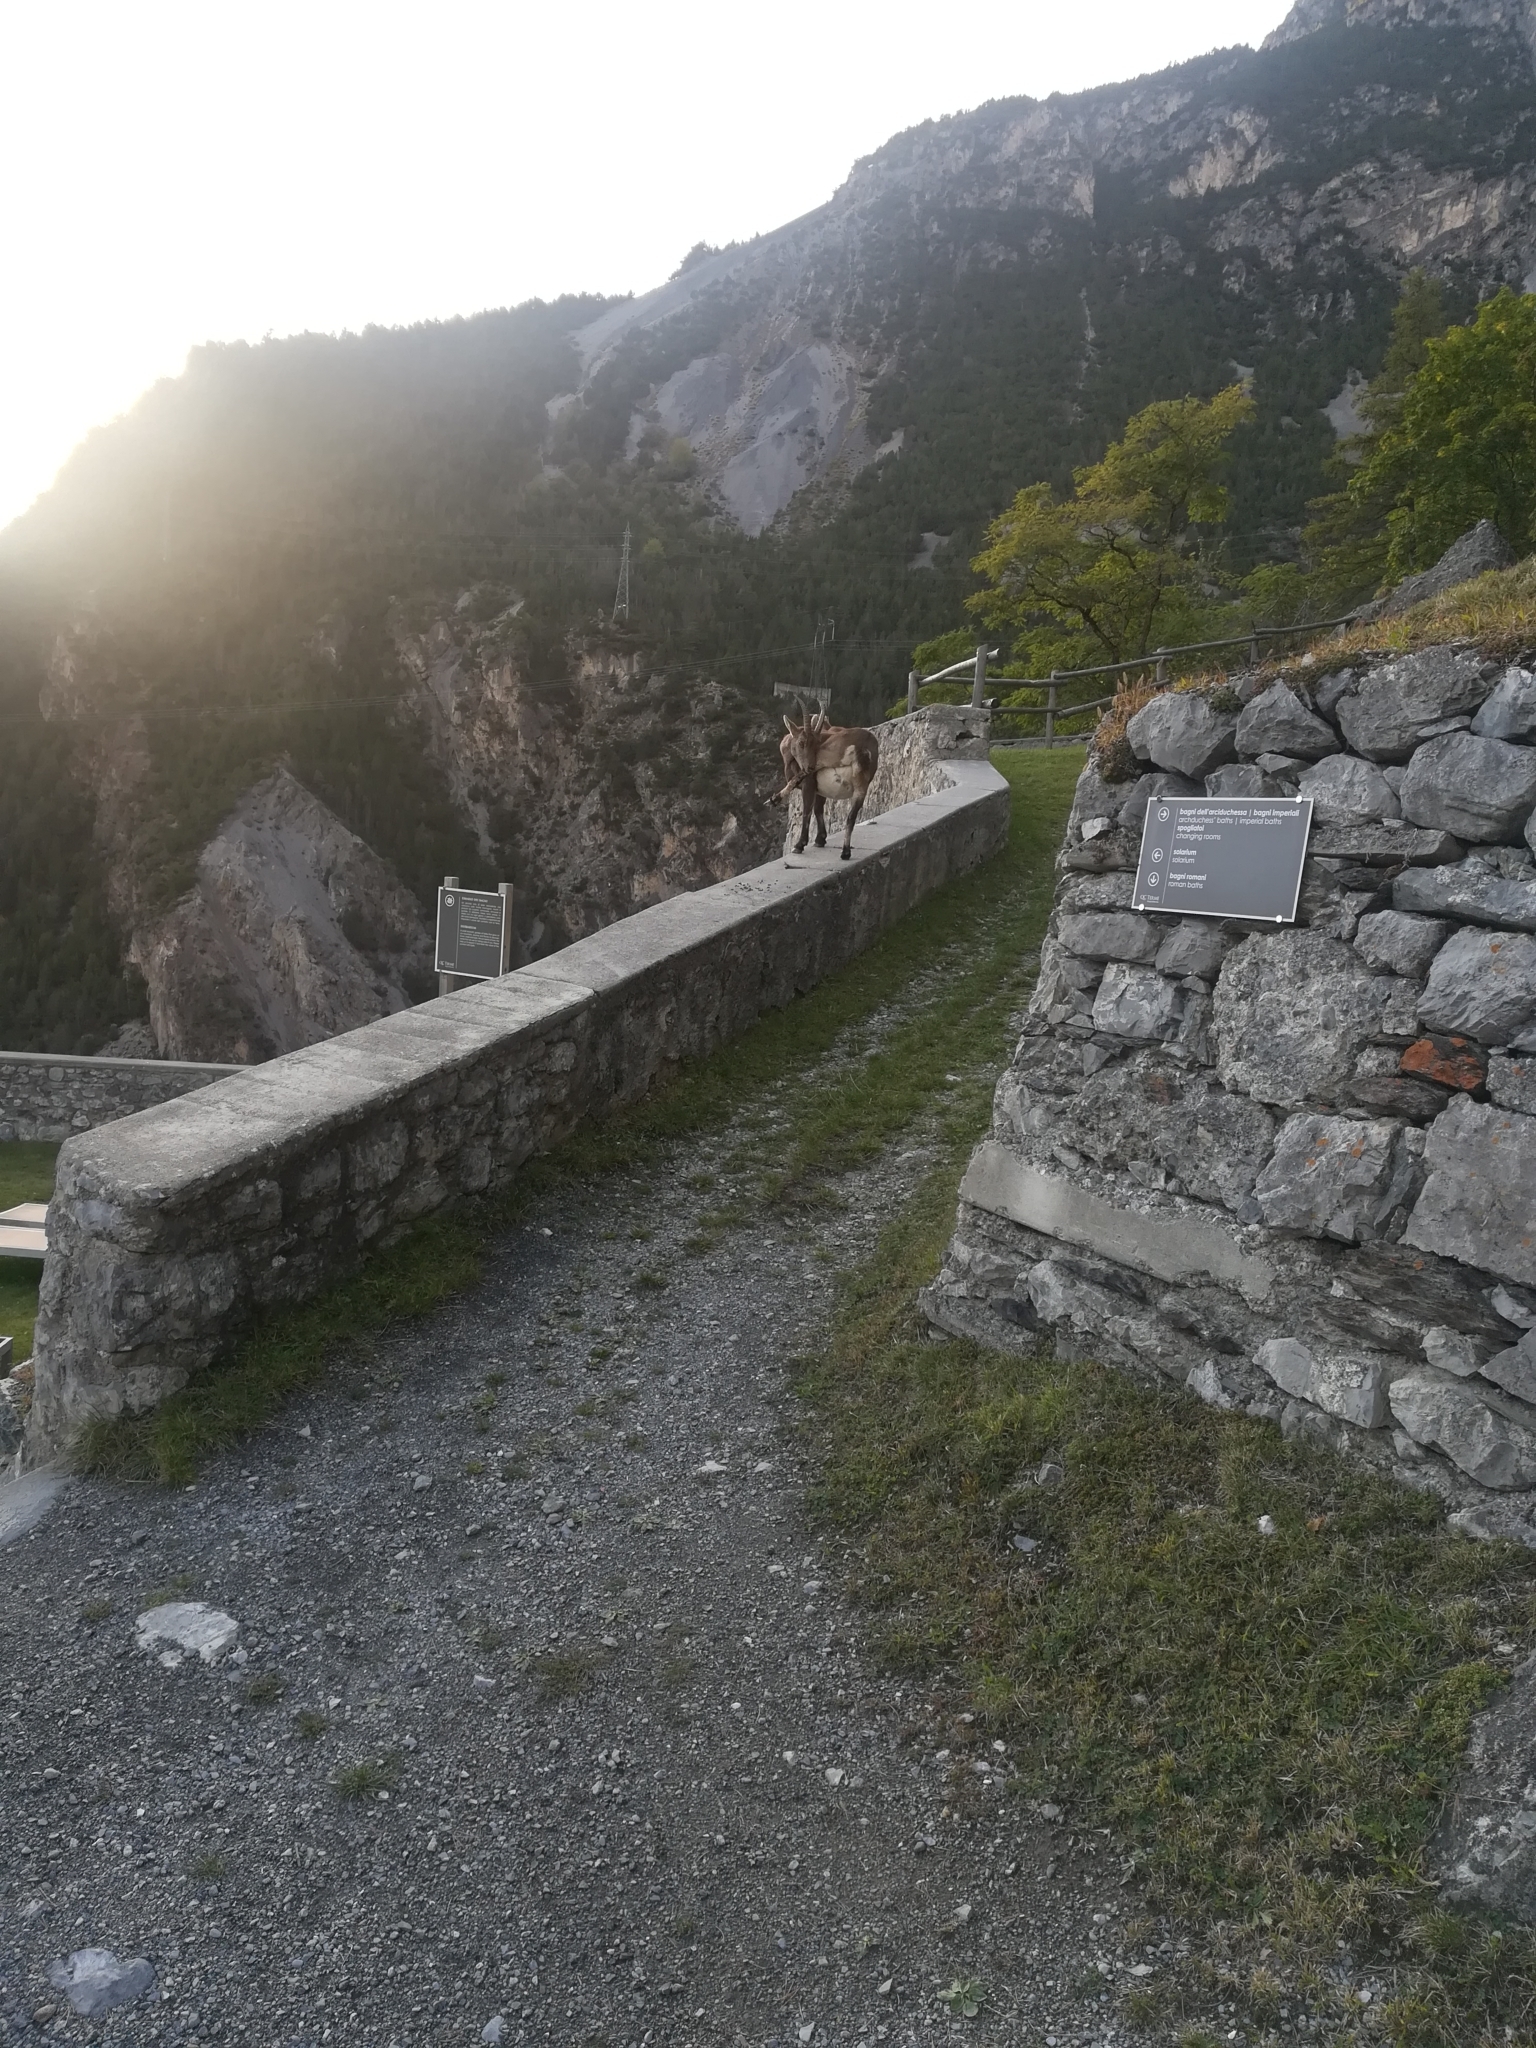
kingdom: Animalia
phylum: Chordata
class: Mammalia
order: Artiodactyla
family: Bovidae
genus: Capra
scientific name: Capra ibex
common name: Alpine ibex
